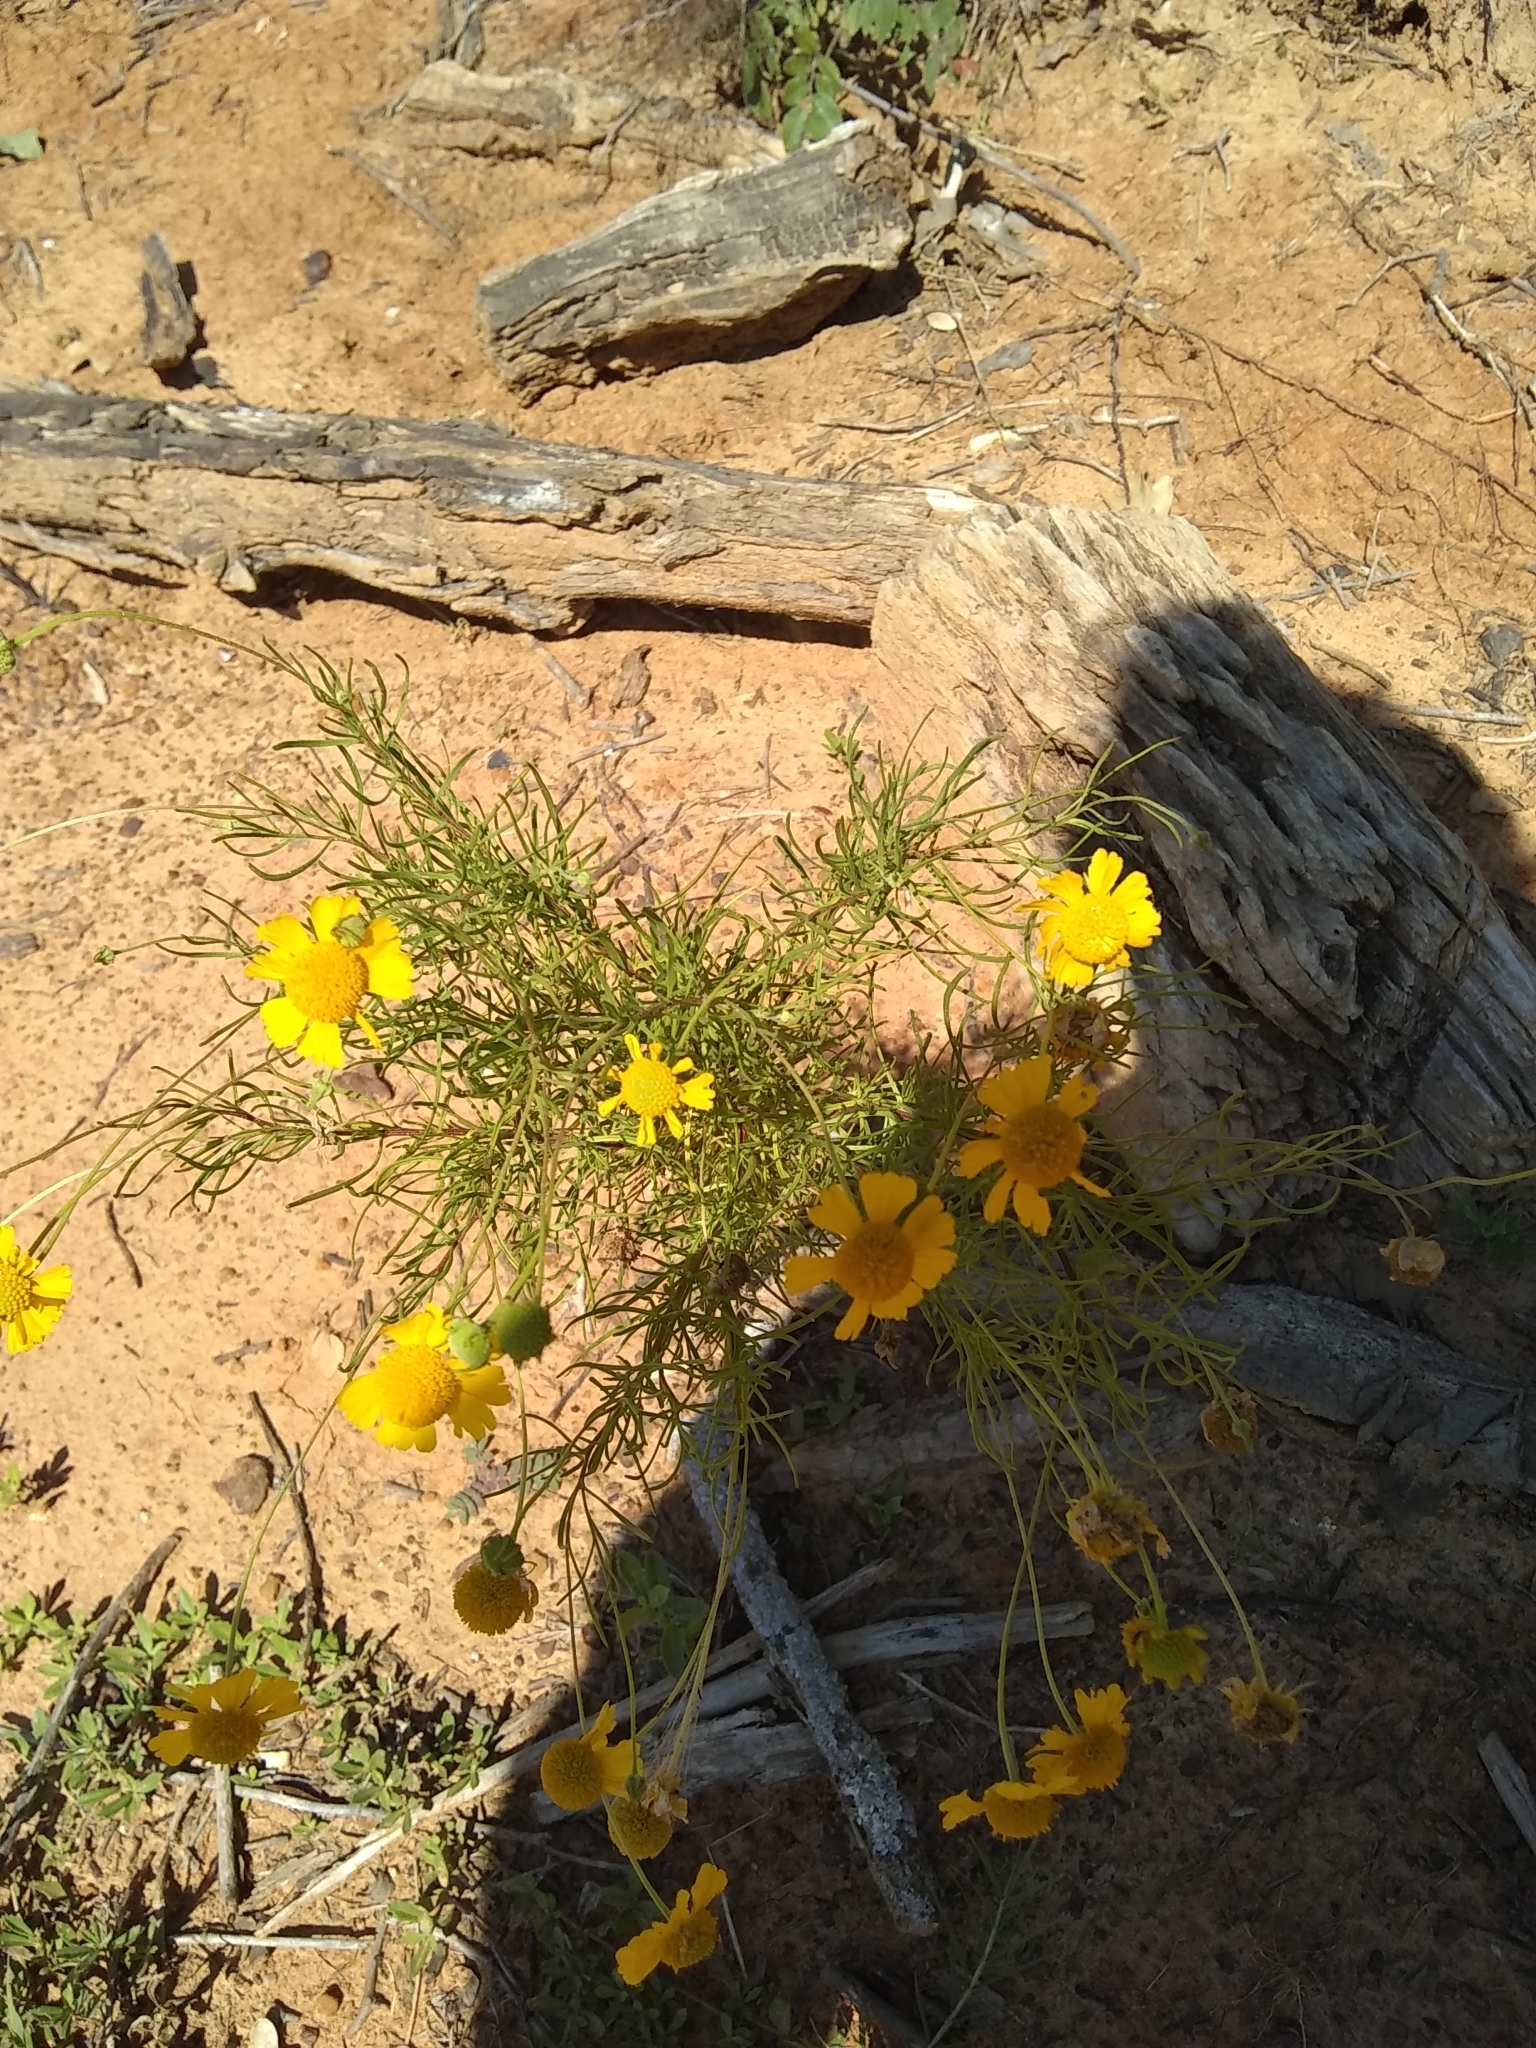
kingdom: Plantae
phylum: Tracheophyta
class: Magnoliopsida
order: Asterales
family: Asteraceae
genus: Helenium
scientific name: Helenium amarum
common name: Bitter sneezeweed
